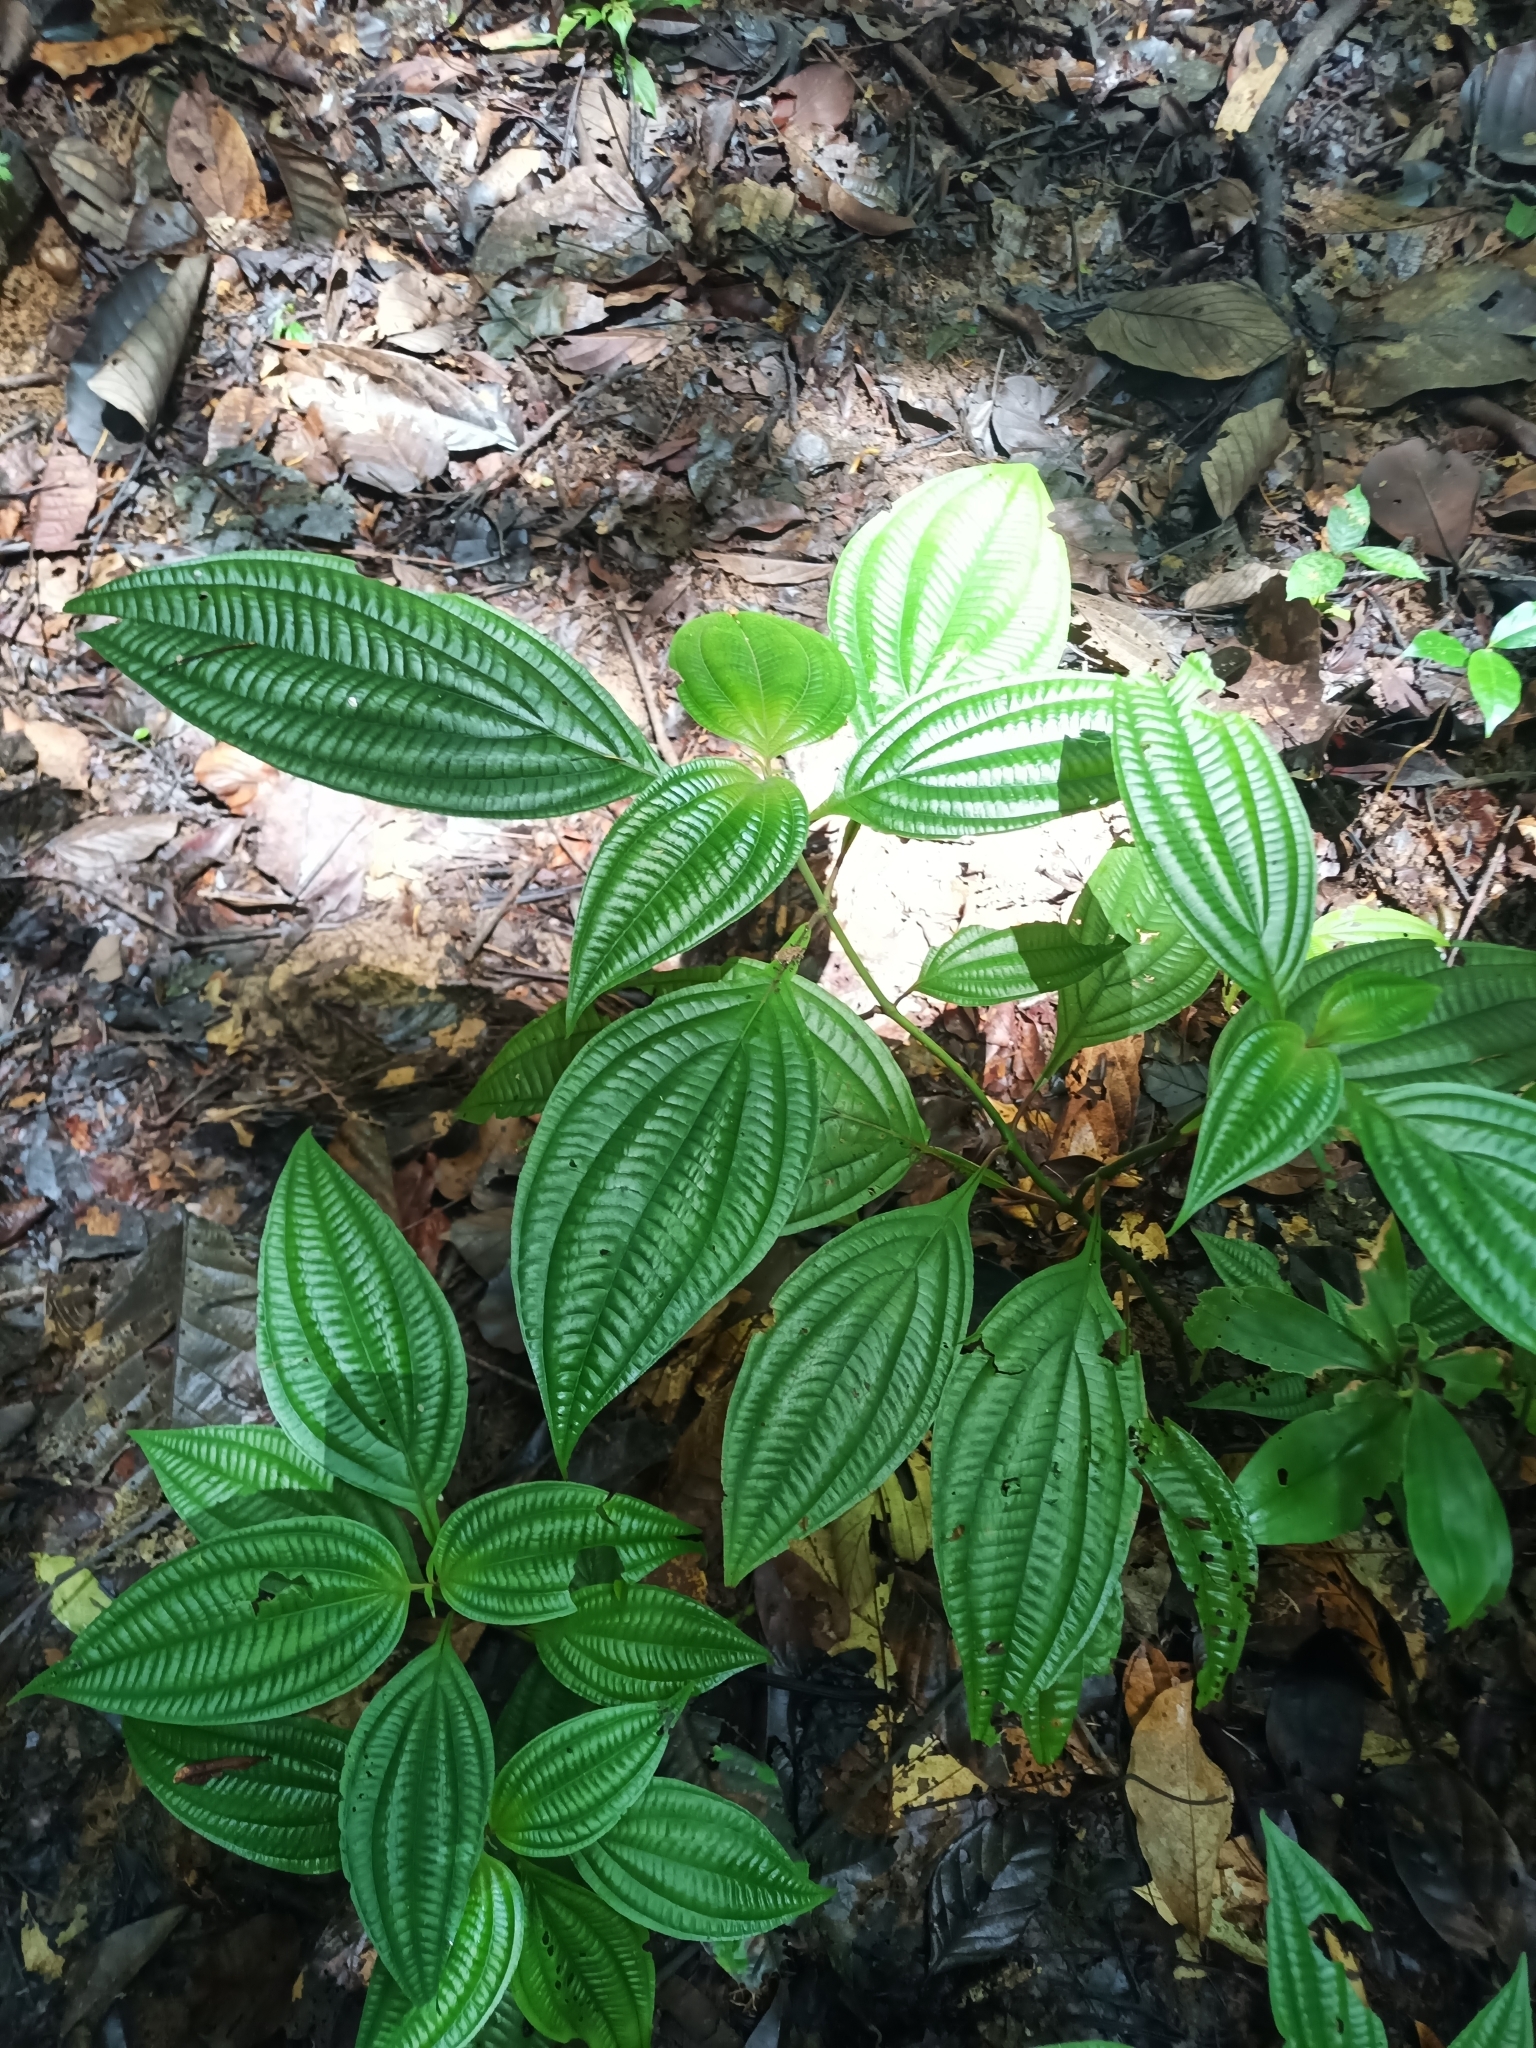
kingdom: Plantae
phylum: Tracheophyta
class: Magnoliopsida
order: Myrtales
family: Melastomataceae
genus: Miconia
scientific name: Miconia trichocalyx
